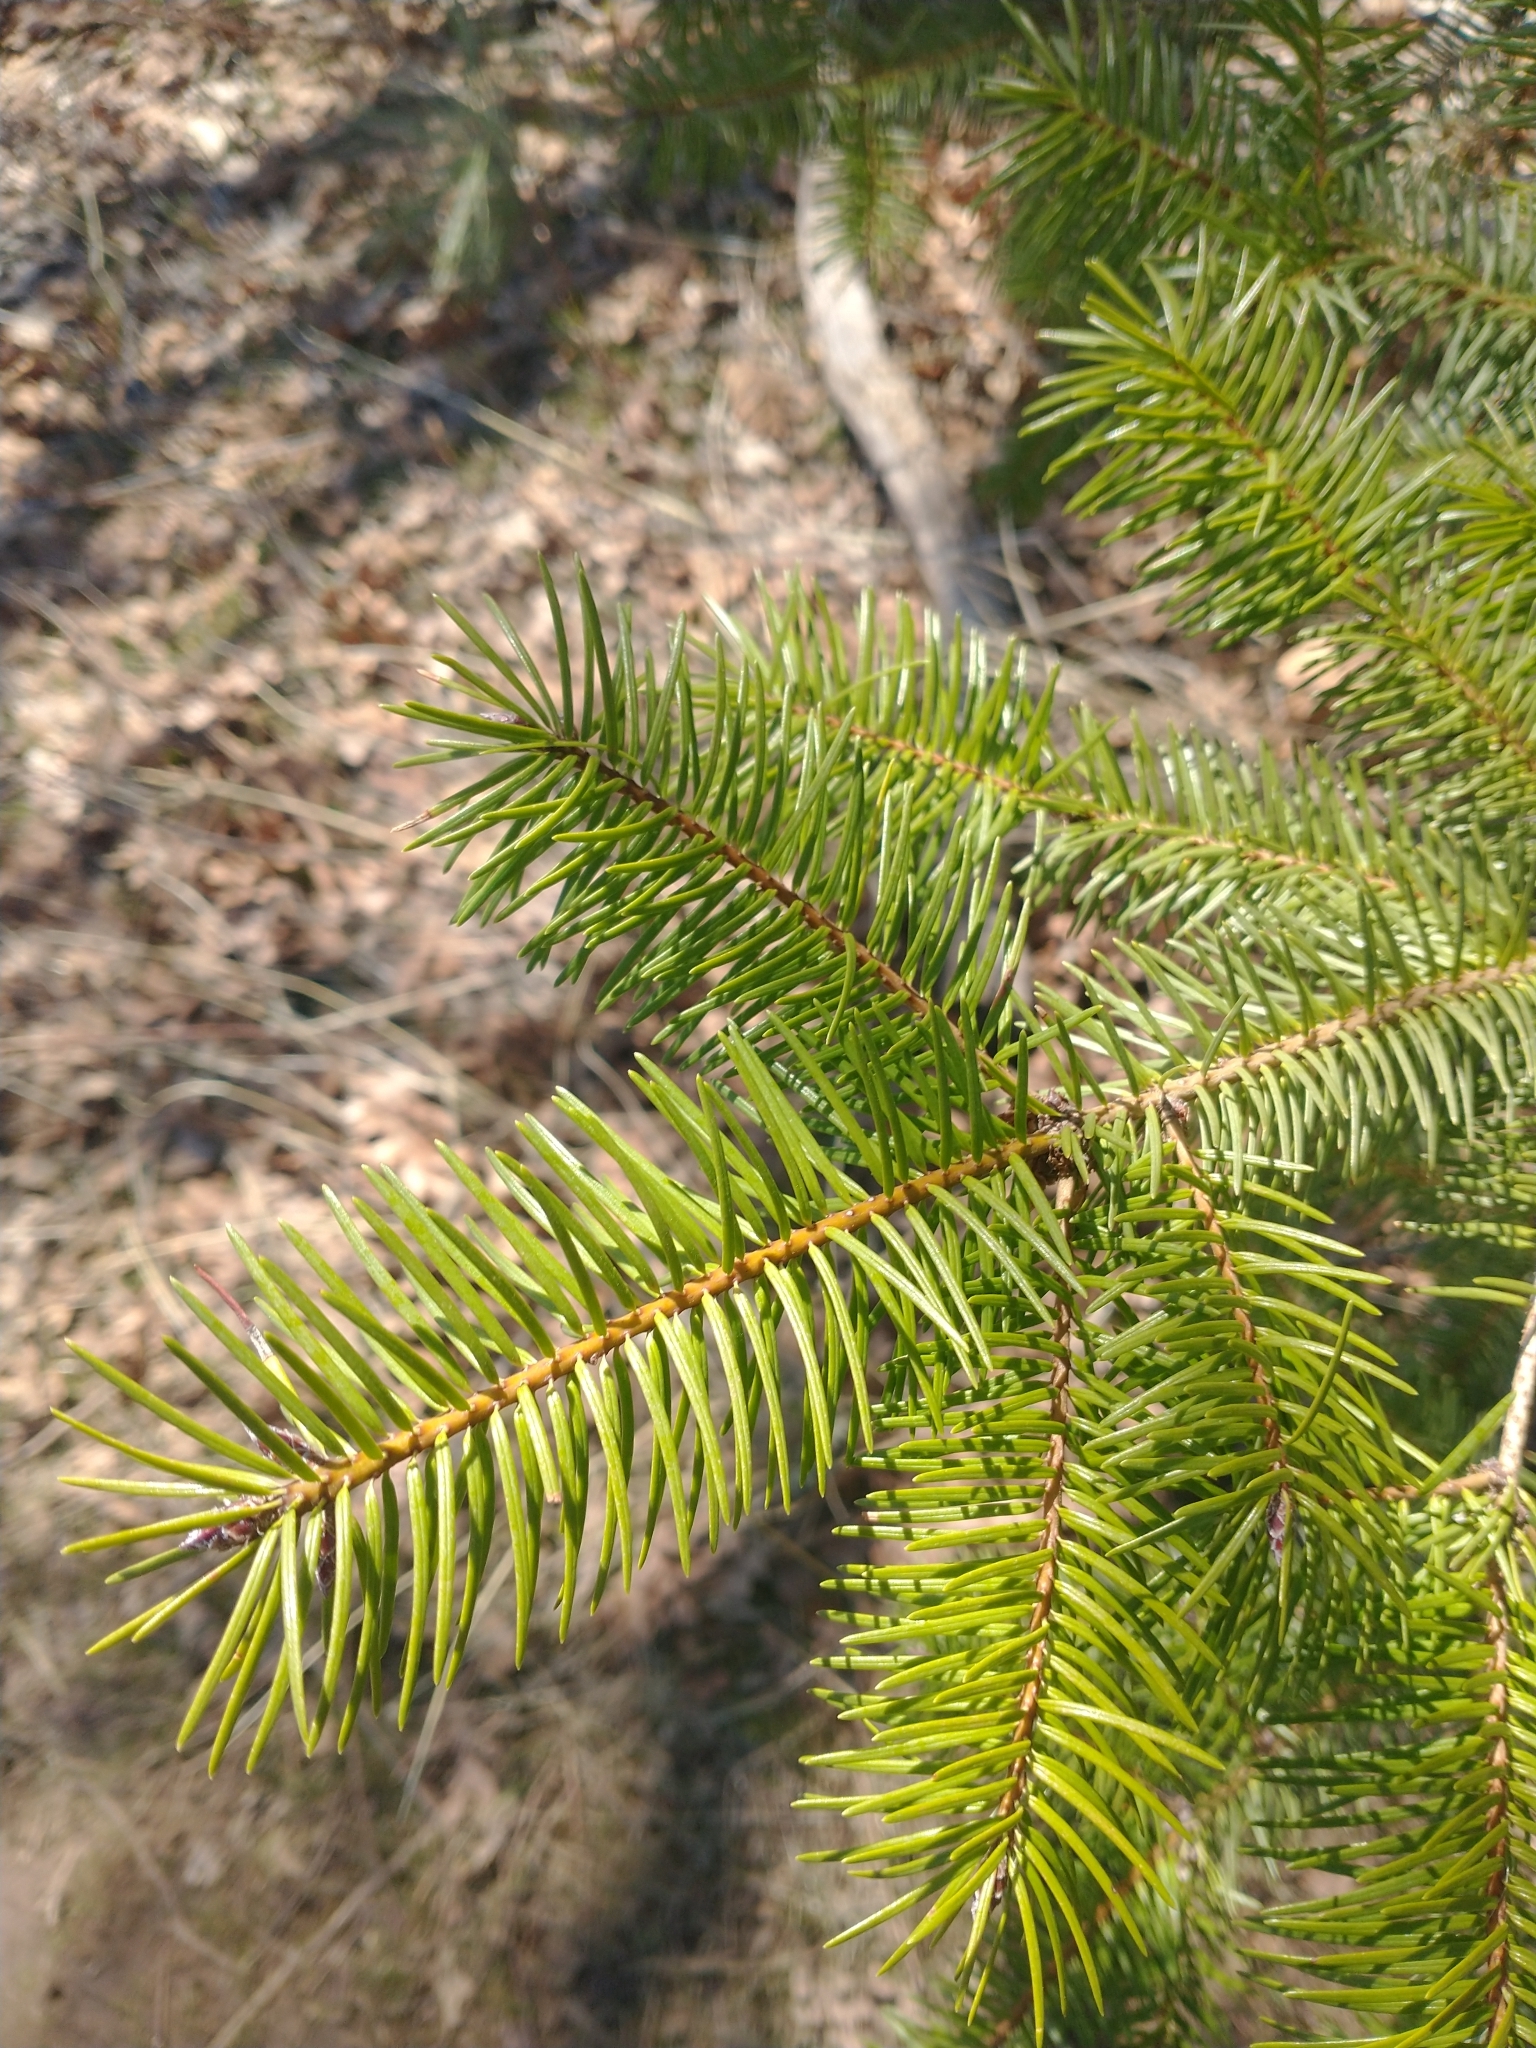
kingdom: Plantae
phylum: Tracheophyta
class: Pinopsida
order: Pinales
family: Pinaceae
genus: Pseudotsuga
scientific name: Pseudotsuga menziesii
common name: Douglas fir
